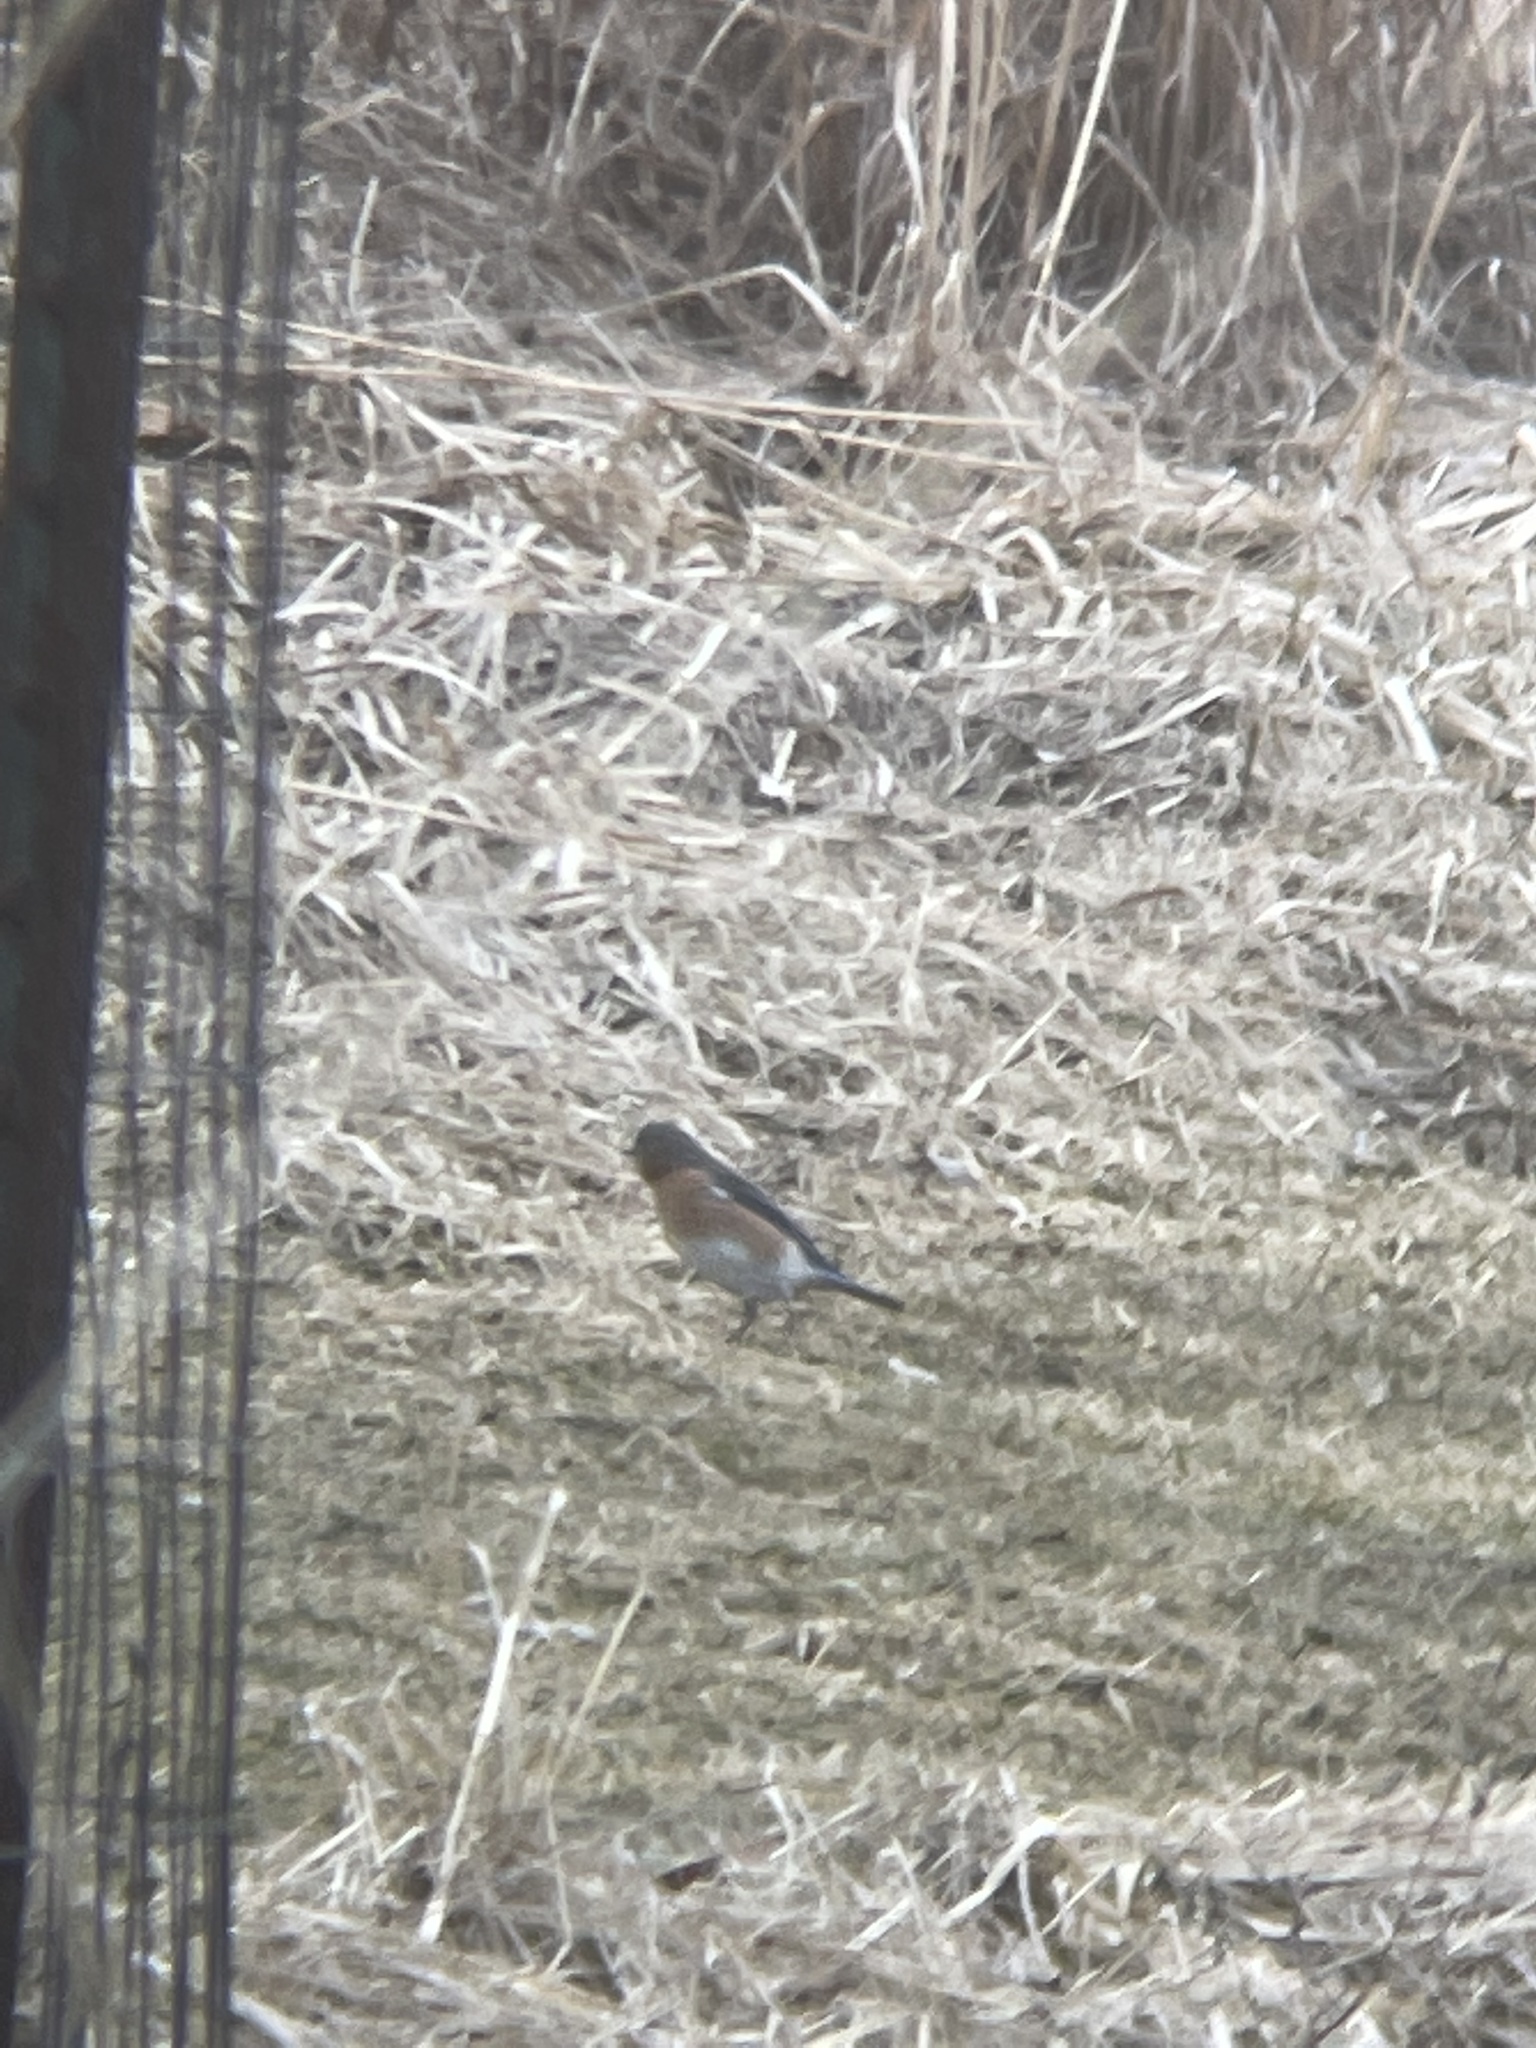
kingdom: Animalia
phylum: Chordata
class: Aves
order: Passeriformes
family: Turdidae
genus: Sialia
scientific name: Sialia sialis
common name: Eastern bluebird
